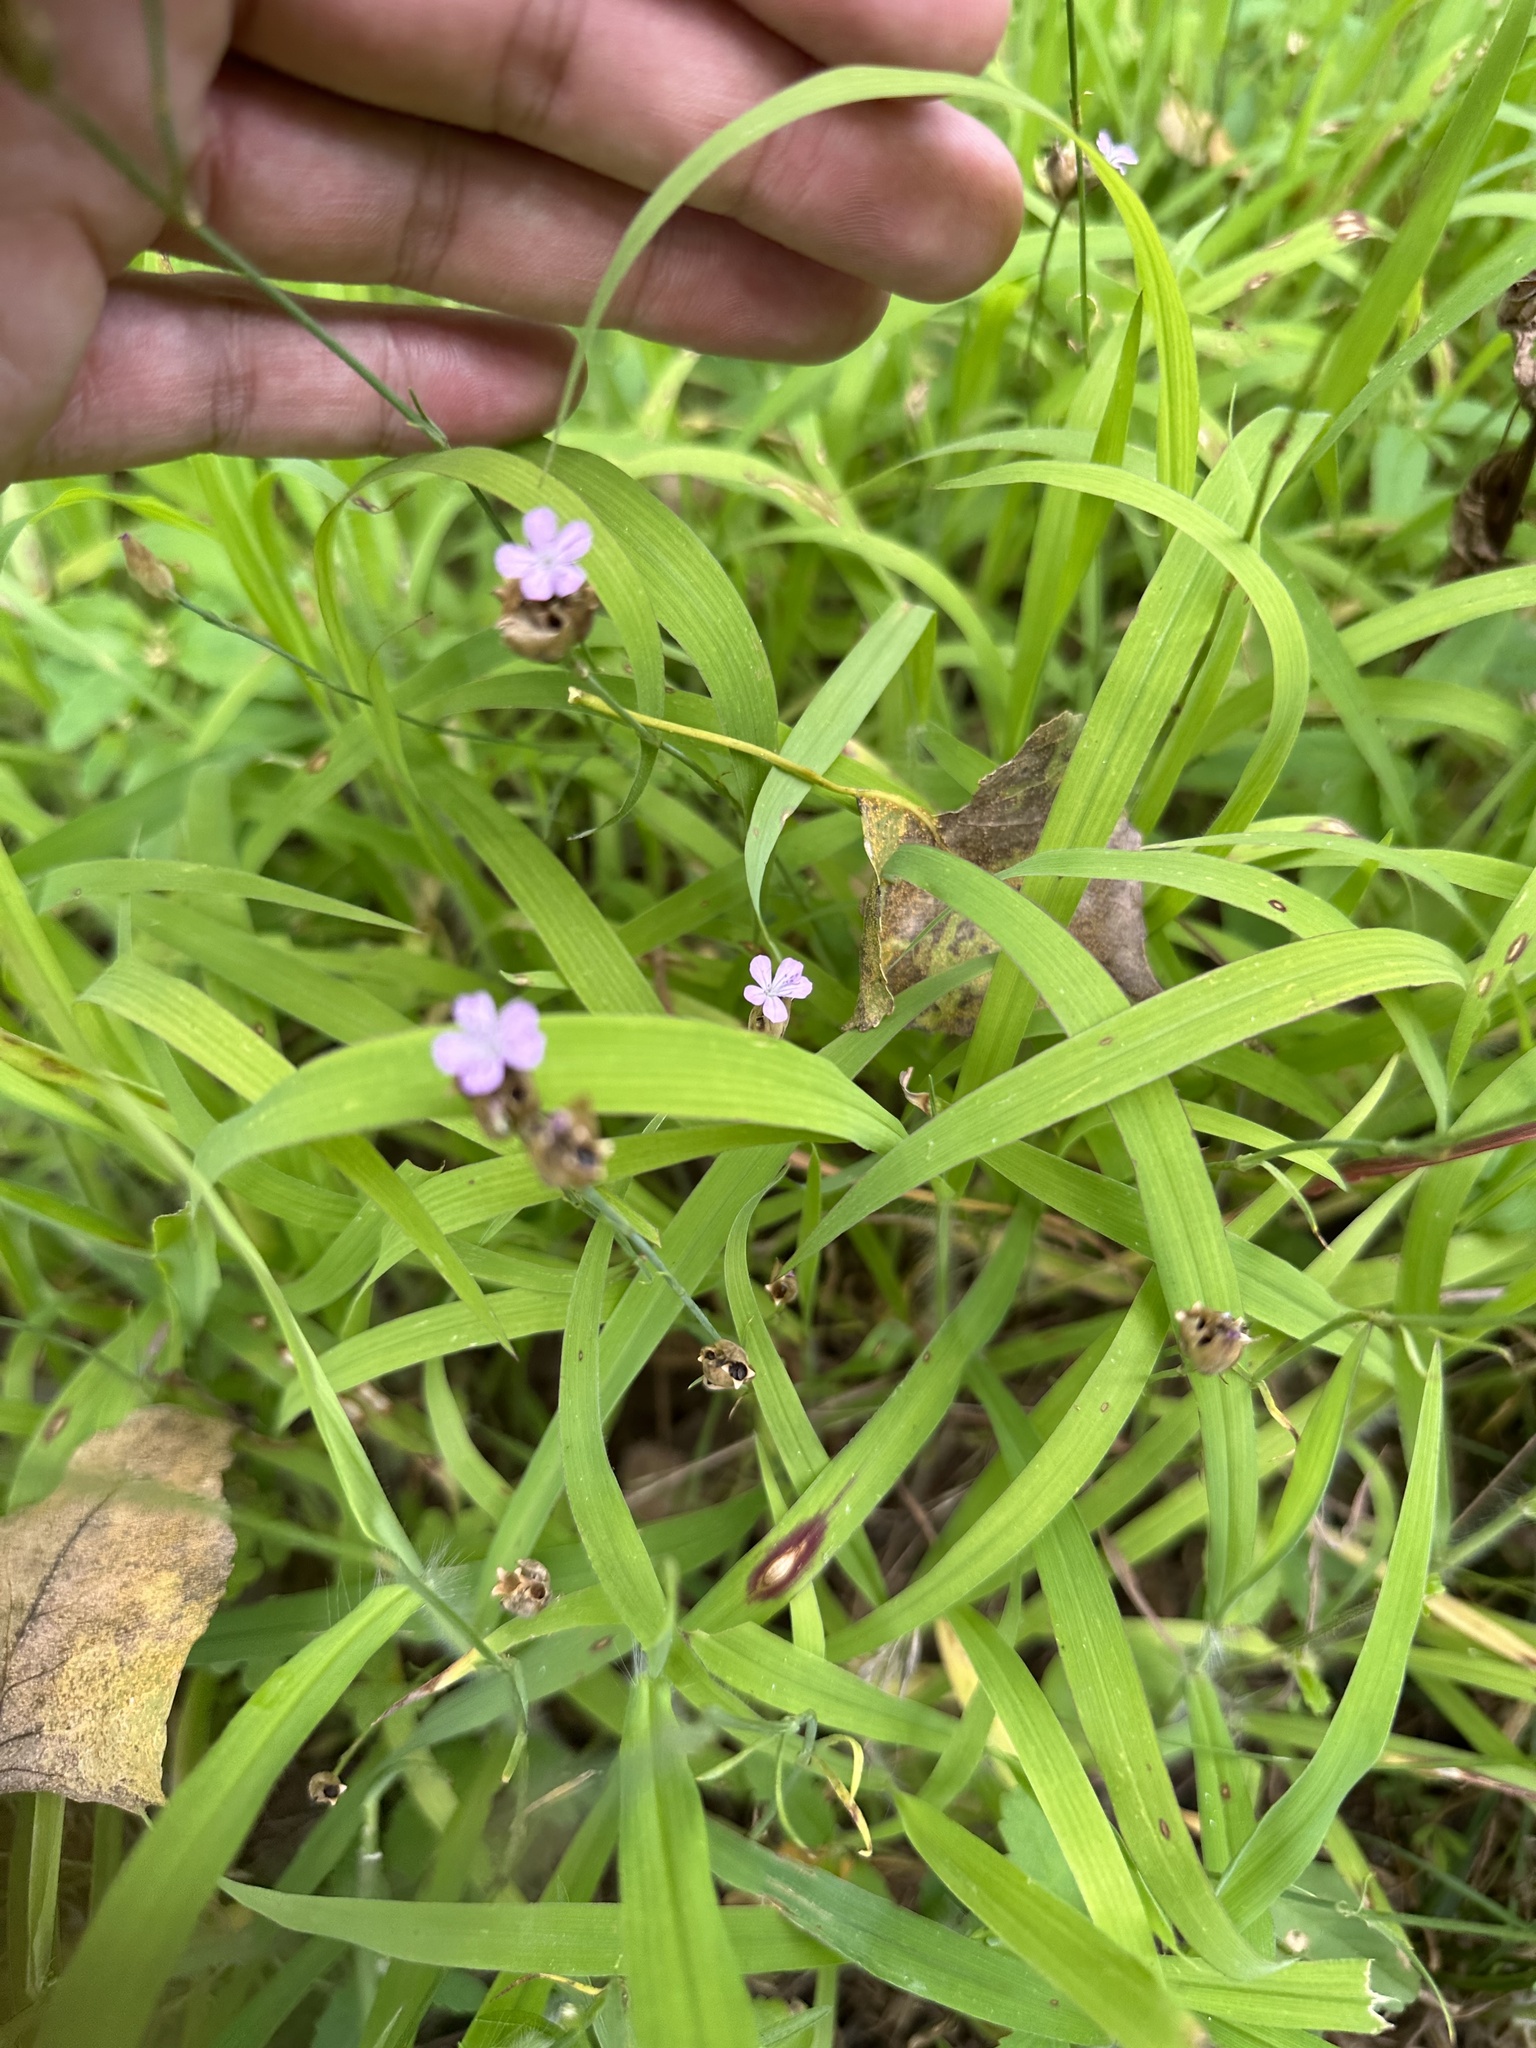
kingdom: Plantae
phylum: Tracheophyta
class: Magnoliopsida
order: Caryophyllales
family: Caryophyllaceae
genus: Petrorhagia
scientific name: Petrorhagia prolifera
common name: Proliferous pink
